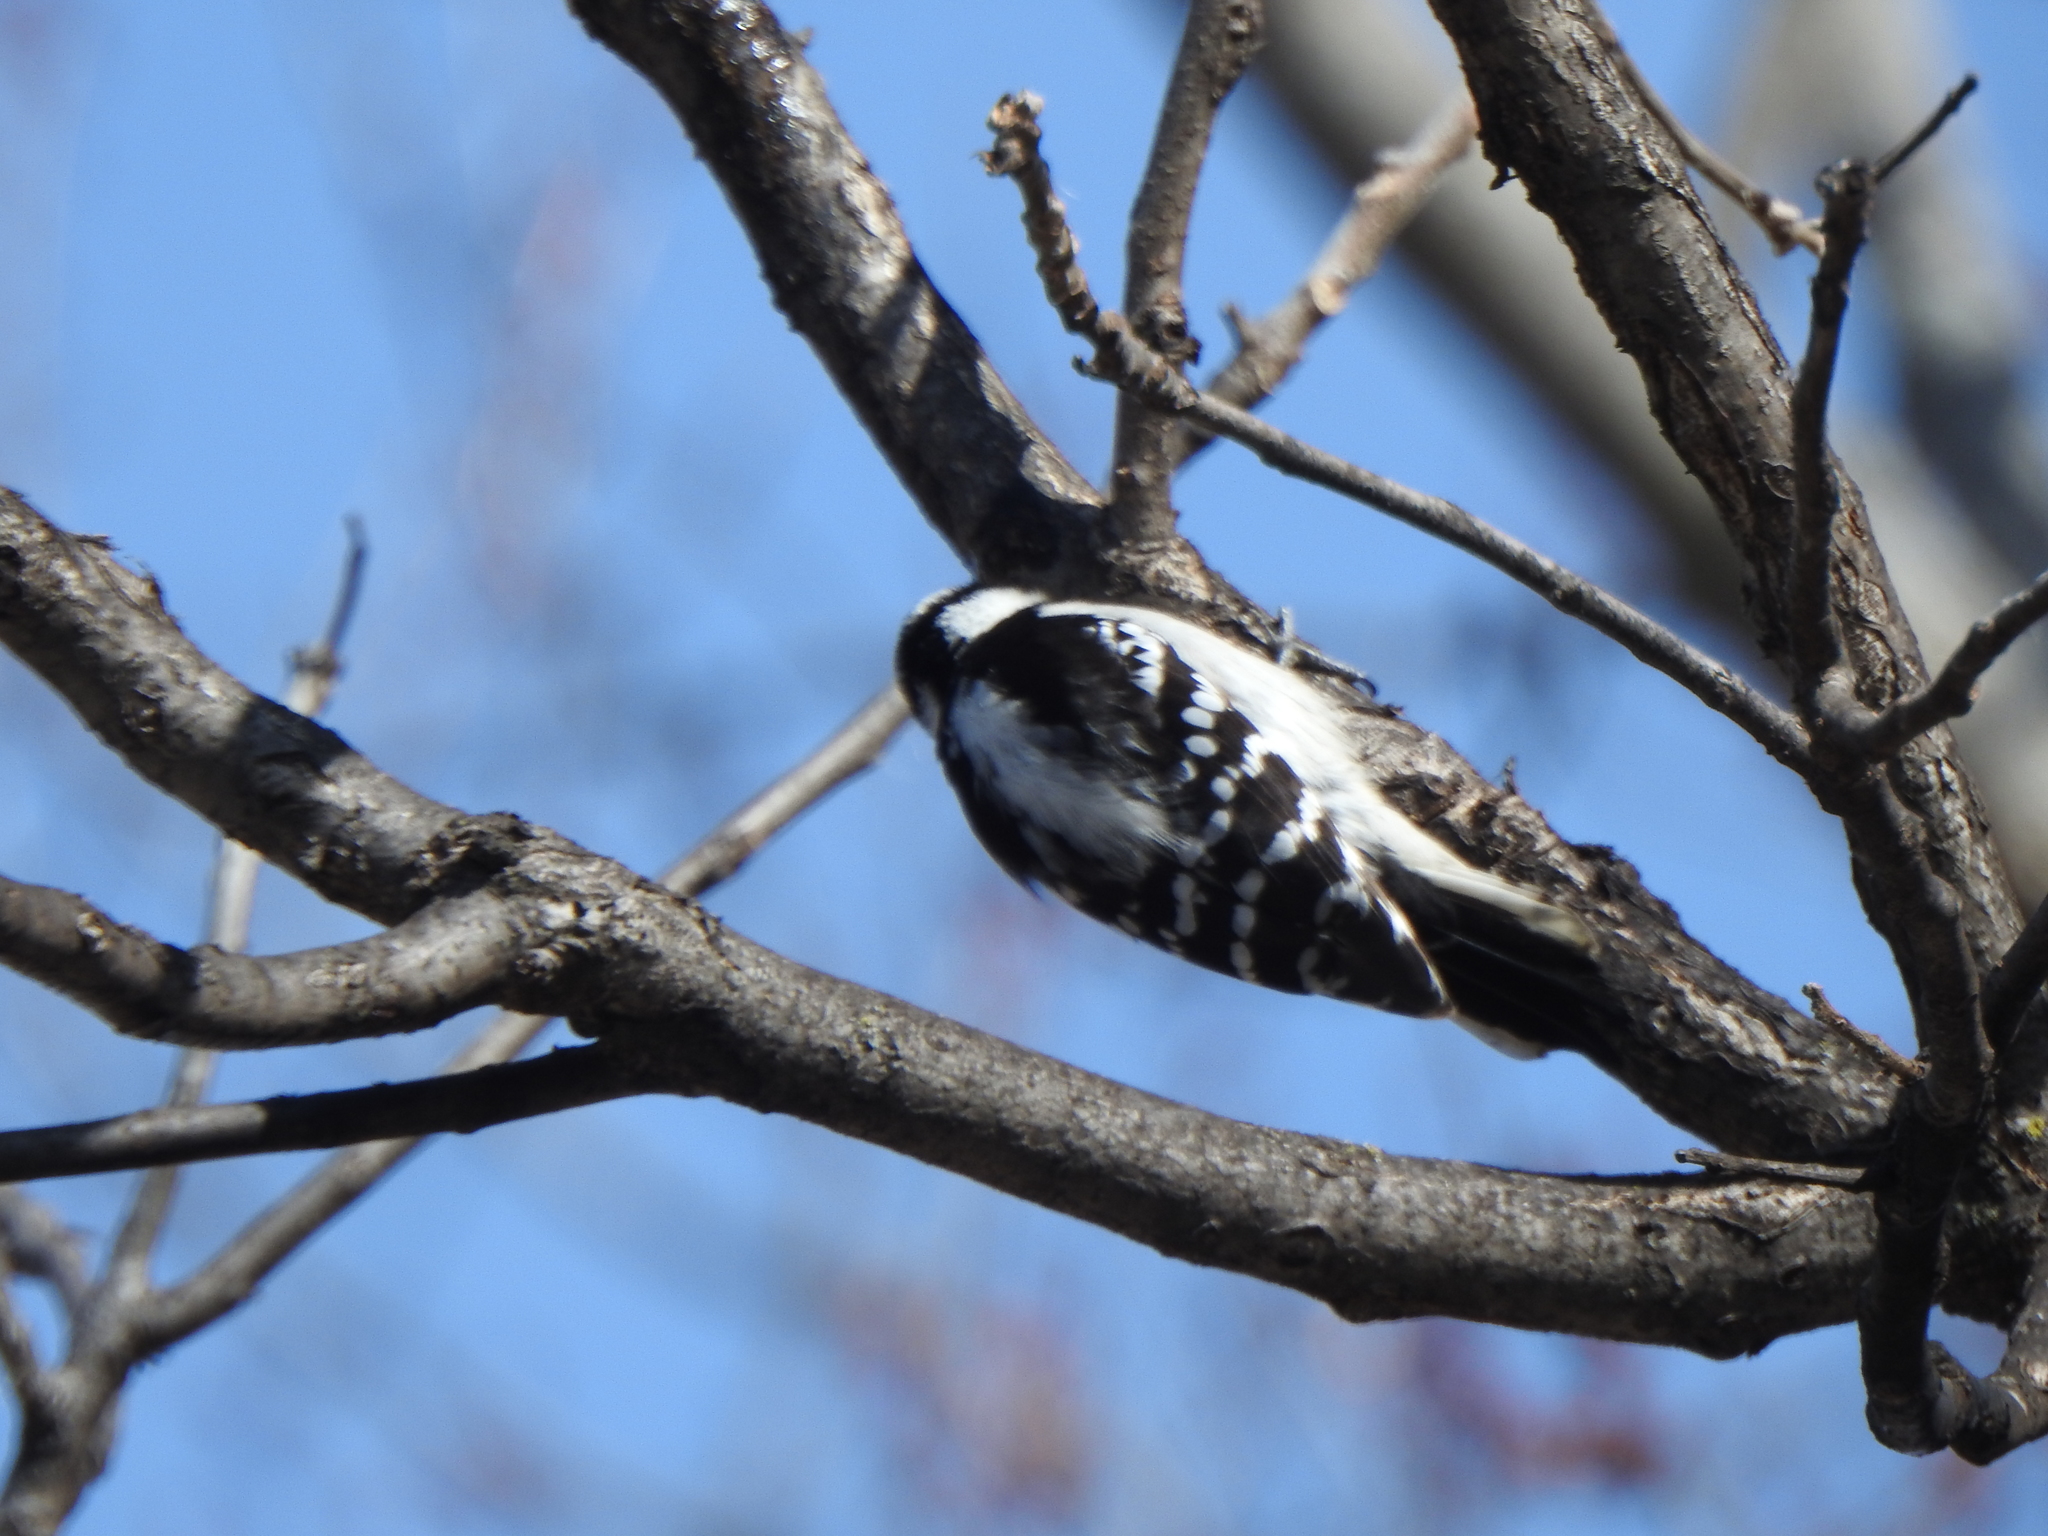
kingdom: Animalia
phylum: Chordata
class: Aves
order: Piciformes
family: Picidae
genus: Dryobates
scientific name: Dryobates pubescens
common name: Downy woodpecker
